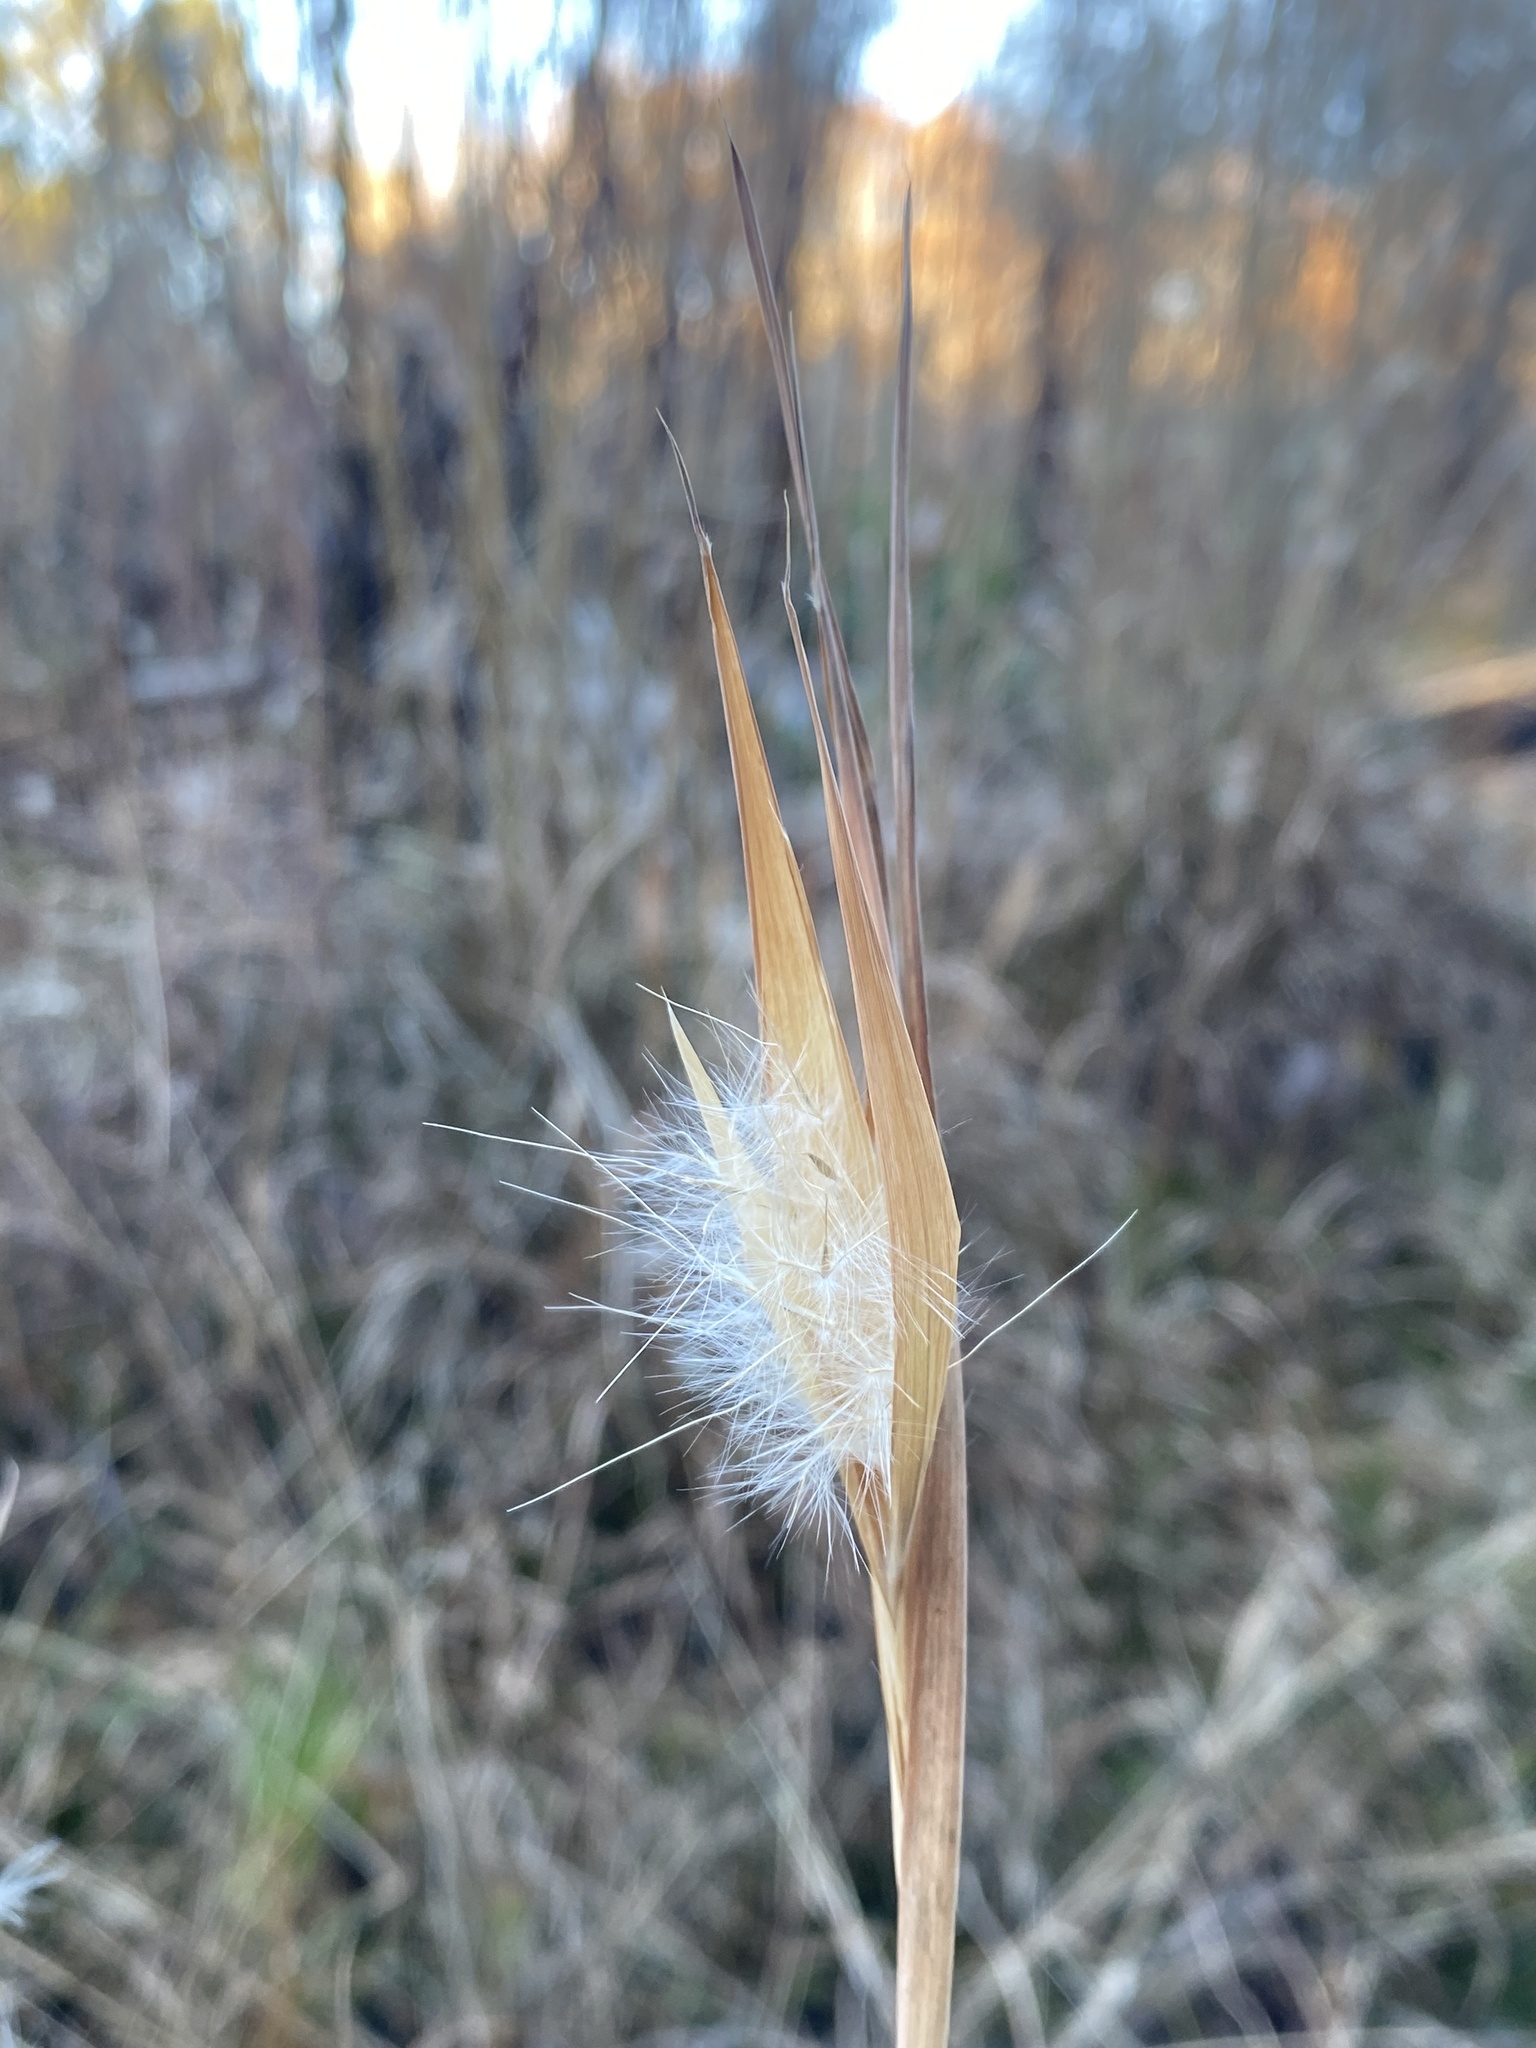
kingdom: Plantae
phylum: Tracheophyta
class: Liliopsida
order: Poales
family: Poaceae
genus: Andropogon
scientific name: Andropogon gyrans
